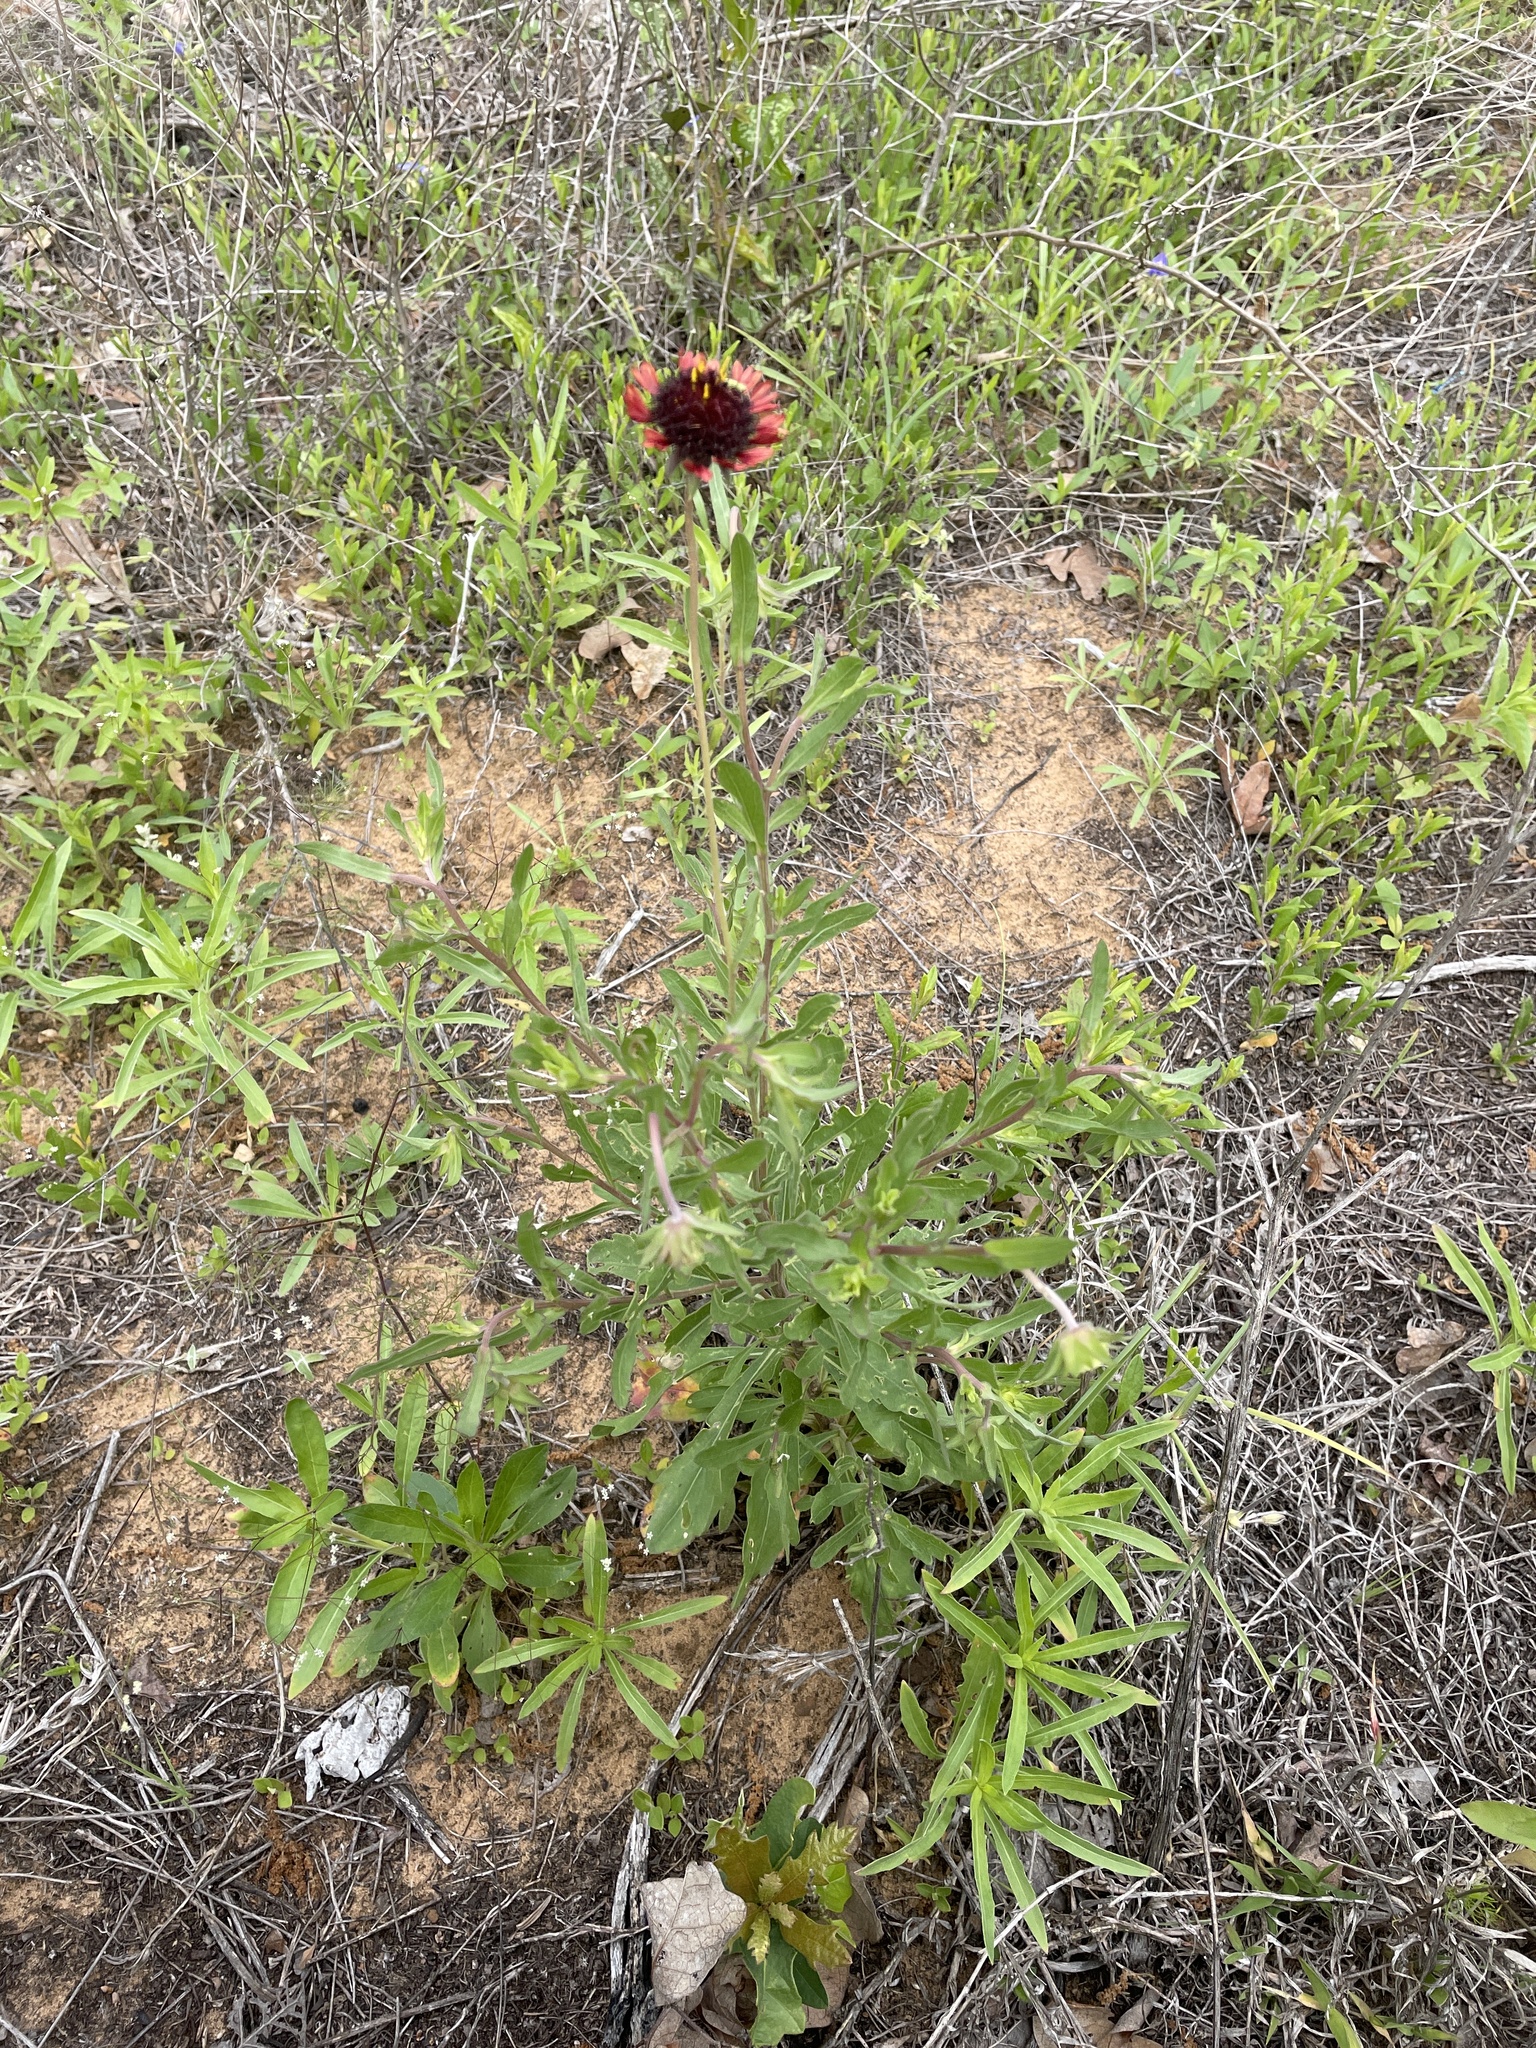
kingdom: Plantae
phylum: Tracheophyta
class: Magnoliopsida
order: Asterales
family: Asteraceae
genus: Gaillardia
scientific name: Gaillardia aestivalis
